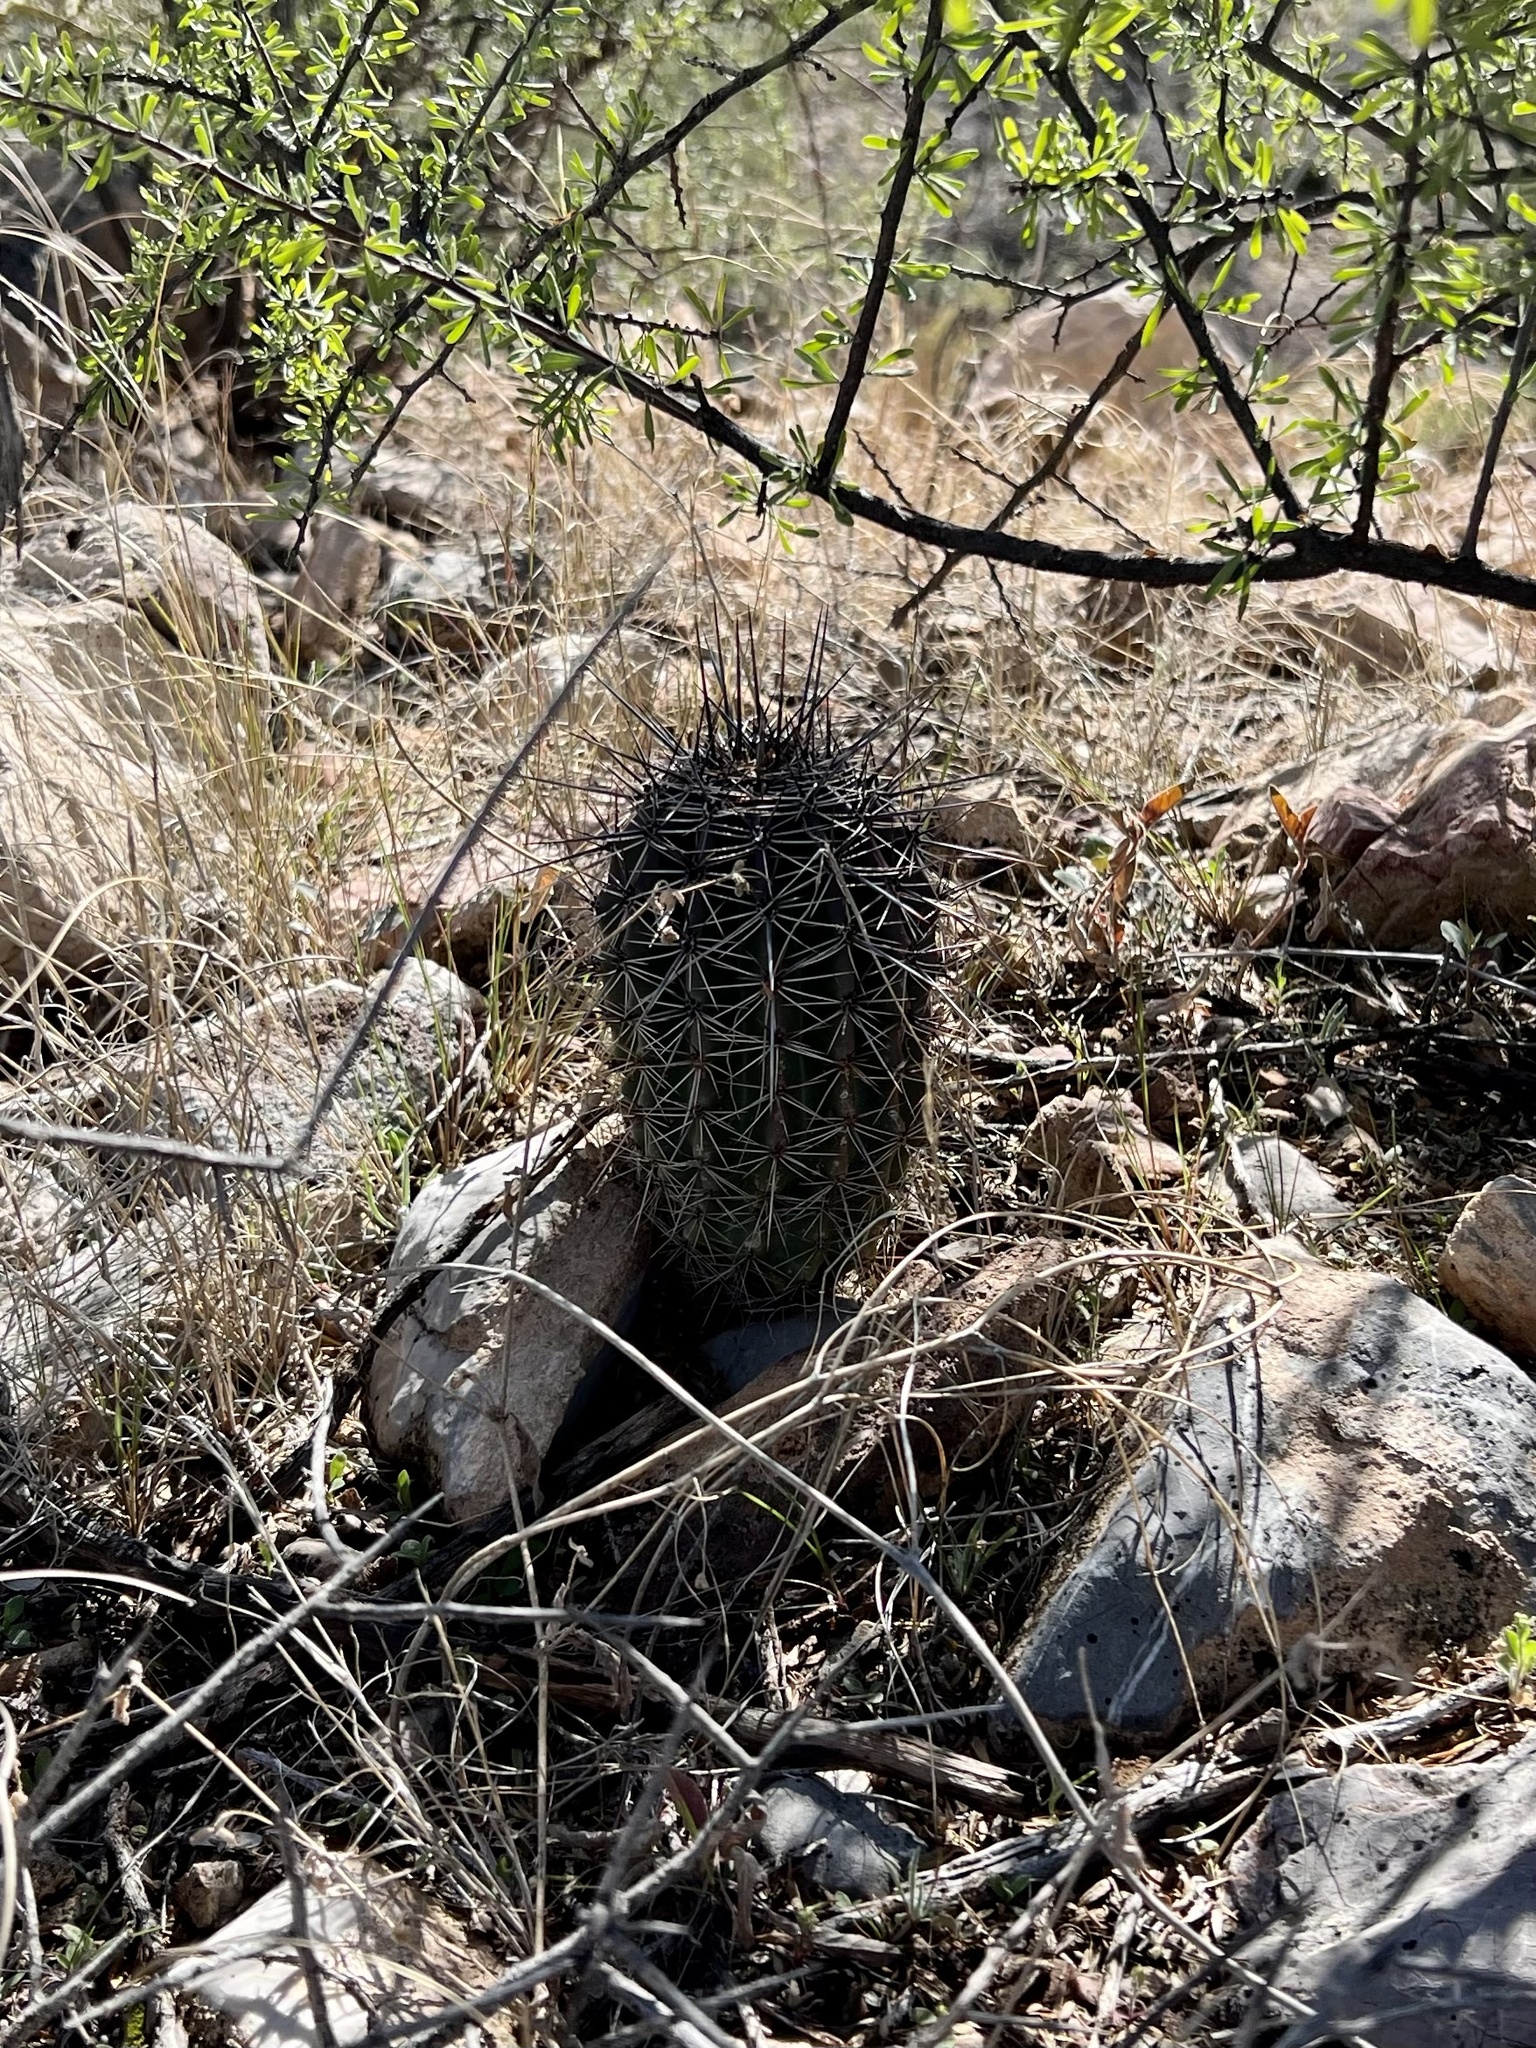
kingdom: Plantae
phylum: Tracheophyta
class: Magnoliopsida
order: Caryophyllales
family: Cactaceae
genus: Carnegiea
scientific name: Carnegiea gigantea
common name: Saguaro
